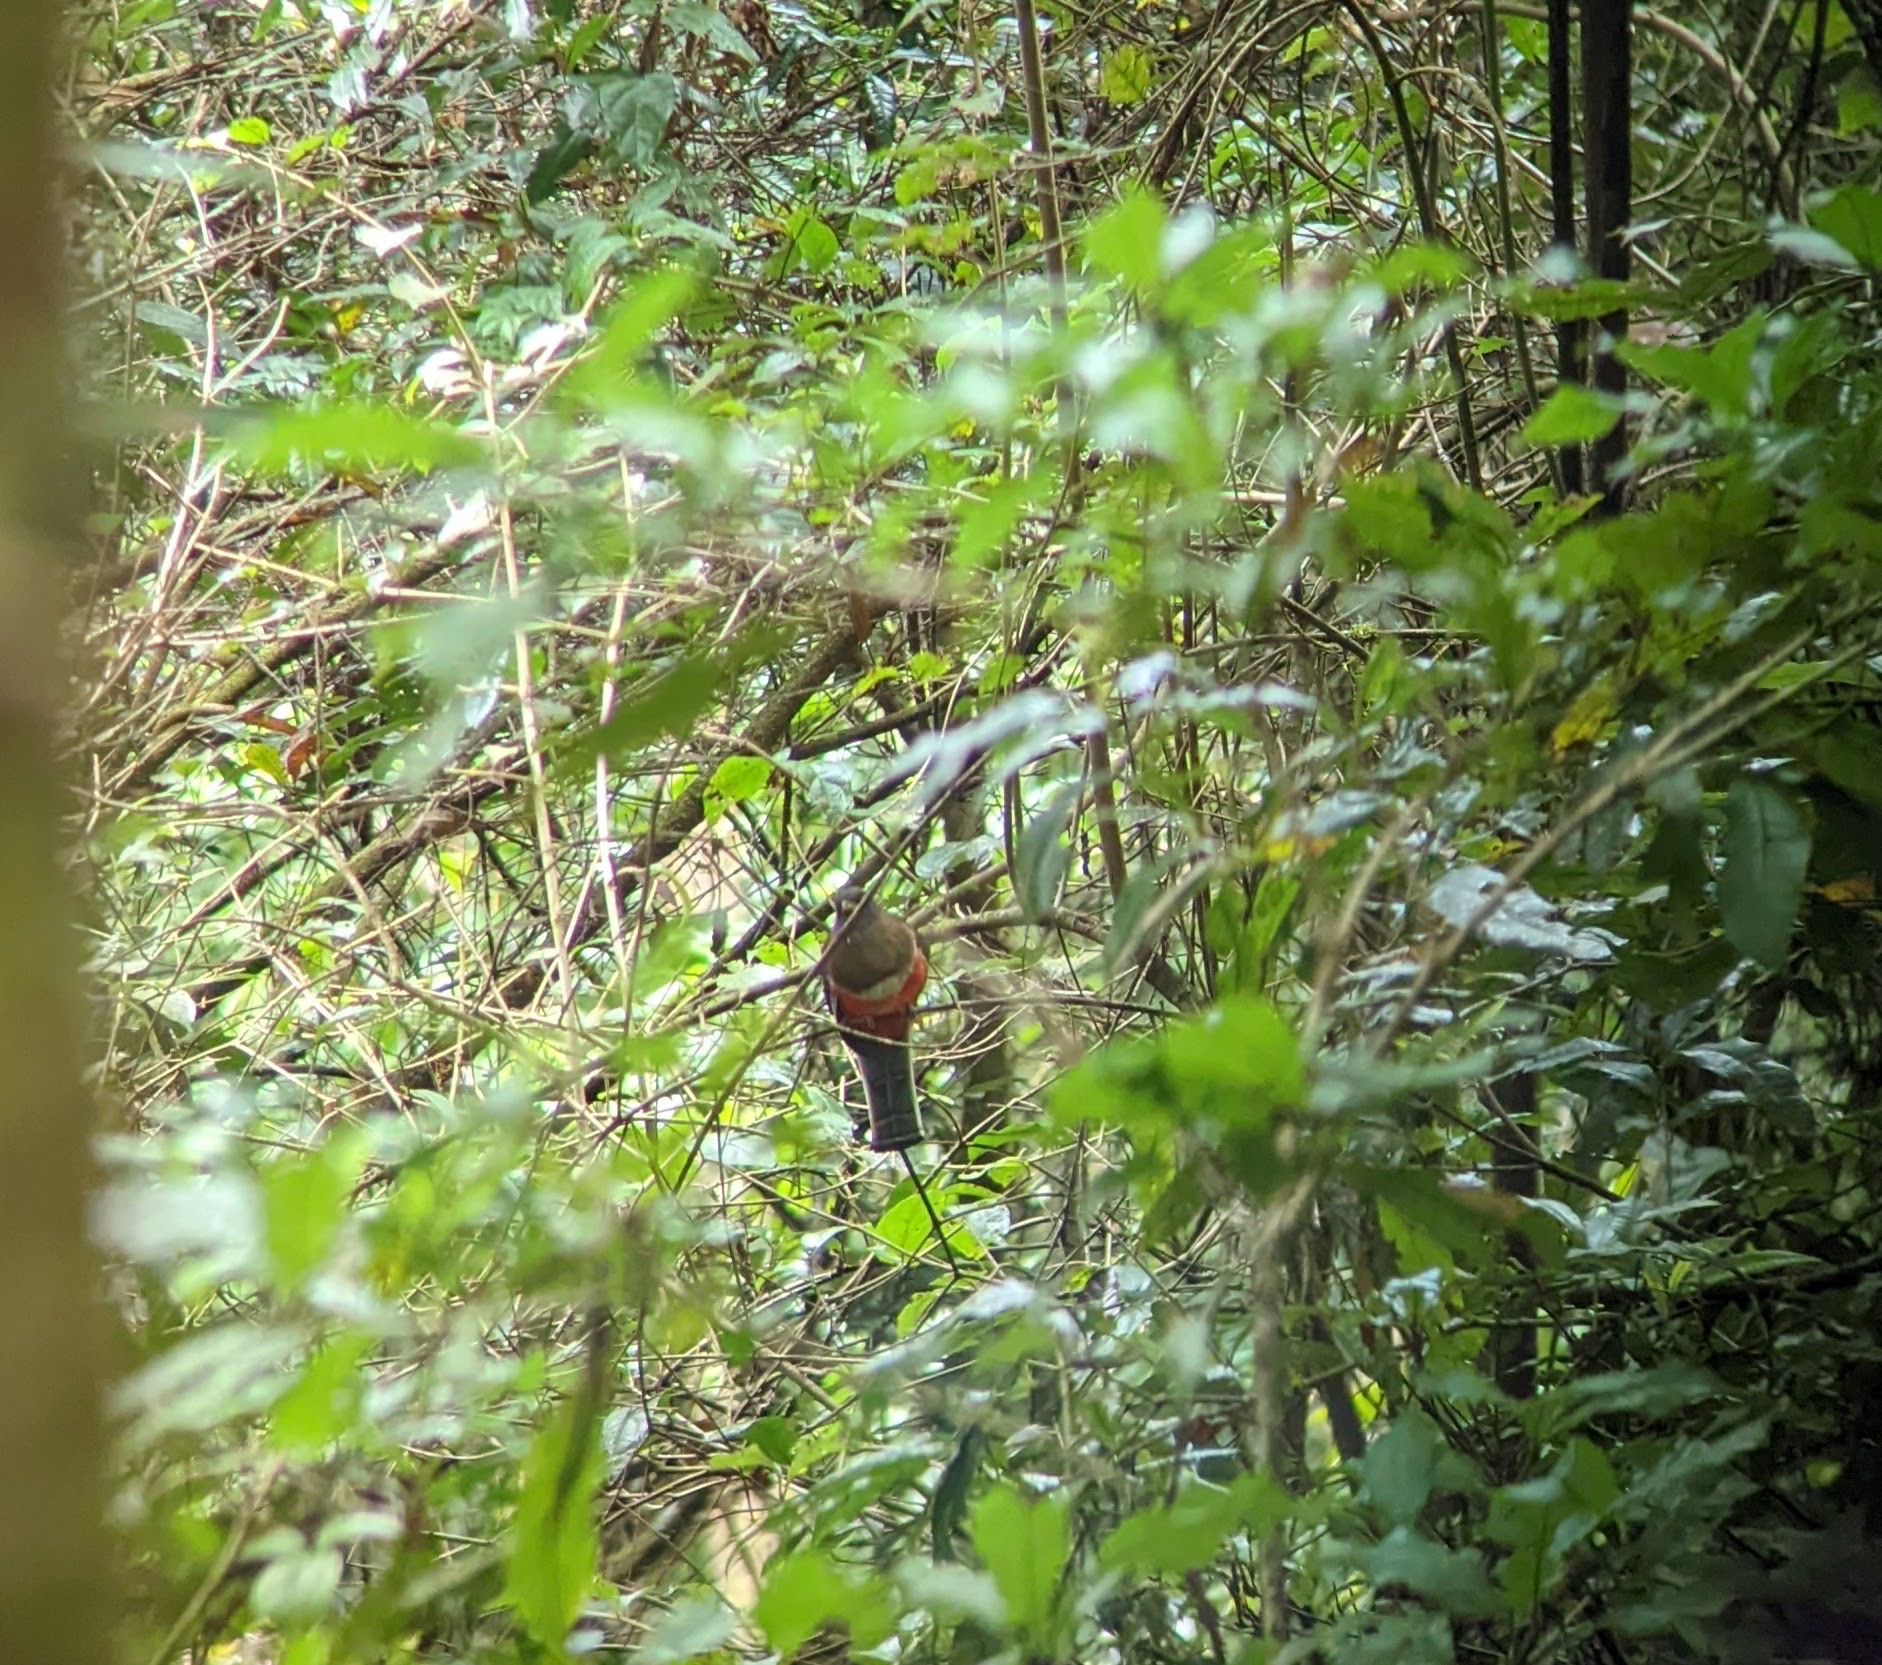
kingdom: Animalia
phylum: Chordata
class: Aves
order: Trogoniformes
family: Trogonidae
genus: Trogon
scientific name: Trogon collaris
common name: Collared trogon
